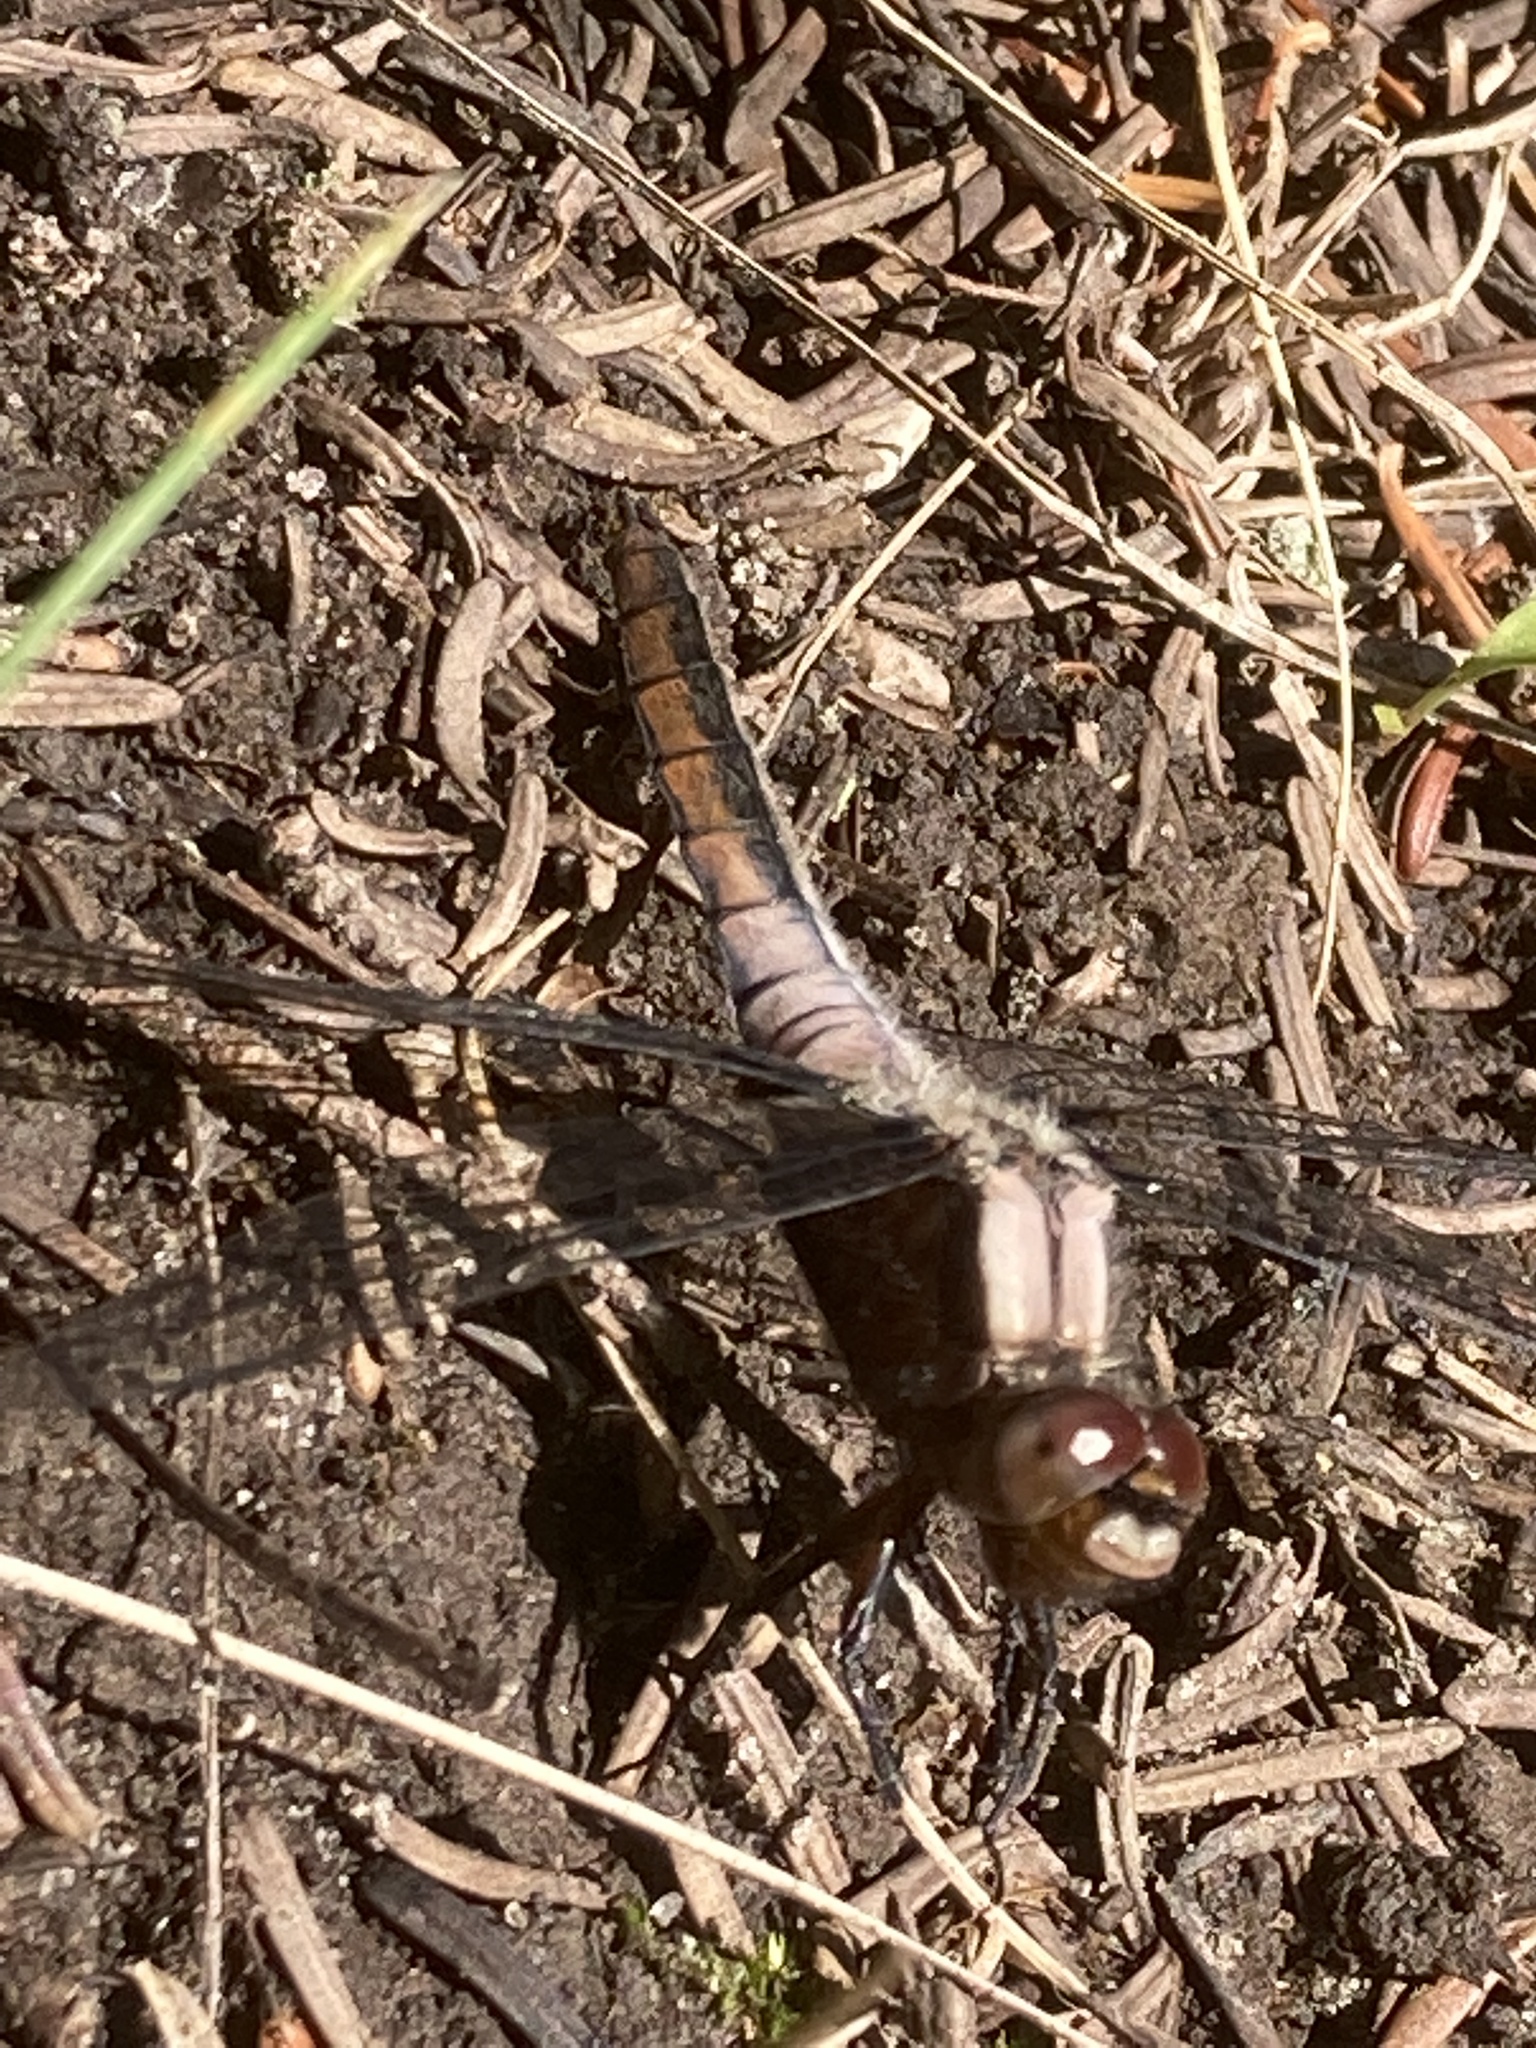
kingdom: Animalia
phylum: Arthropoda
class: Insecta
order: Odonata
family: Libellulidae
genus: Ladona
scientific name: Ladona julia
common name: Chalk-fronted corporal
